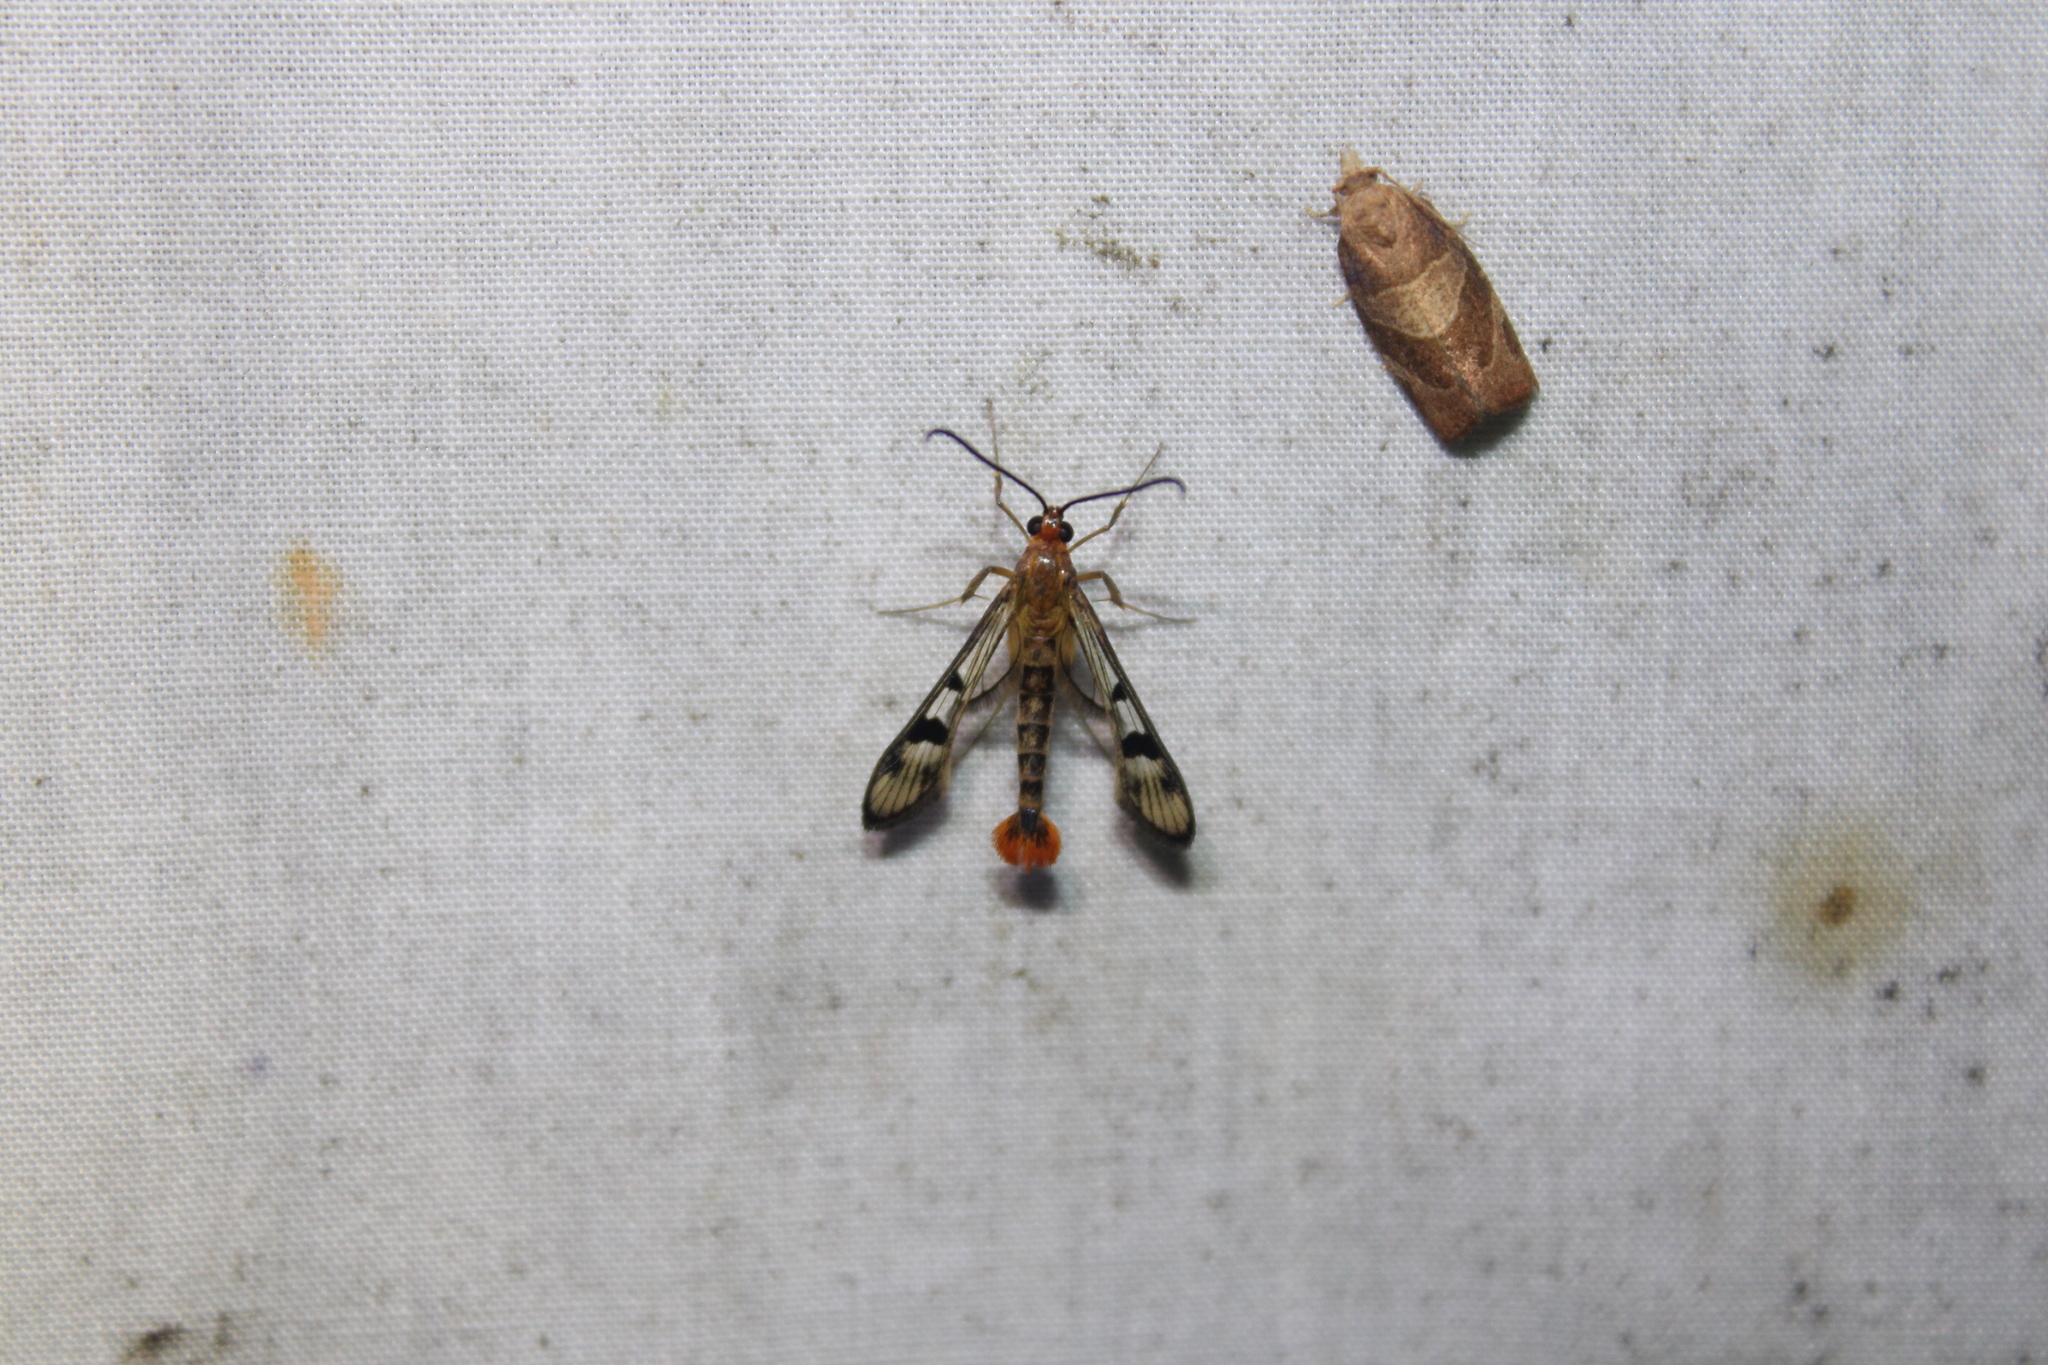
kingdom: Animalia
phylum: Arthropoda
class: Insecta
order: Lepidoptera
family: Sesiidae
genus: Synanthedon
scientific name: Synanthedon acerni
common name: Maple callus borer moth
